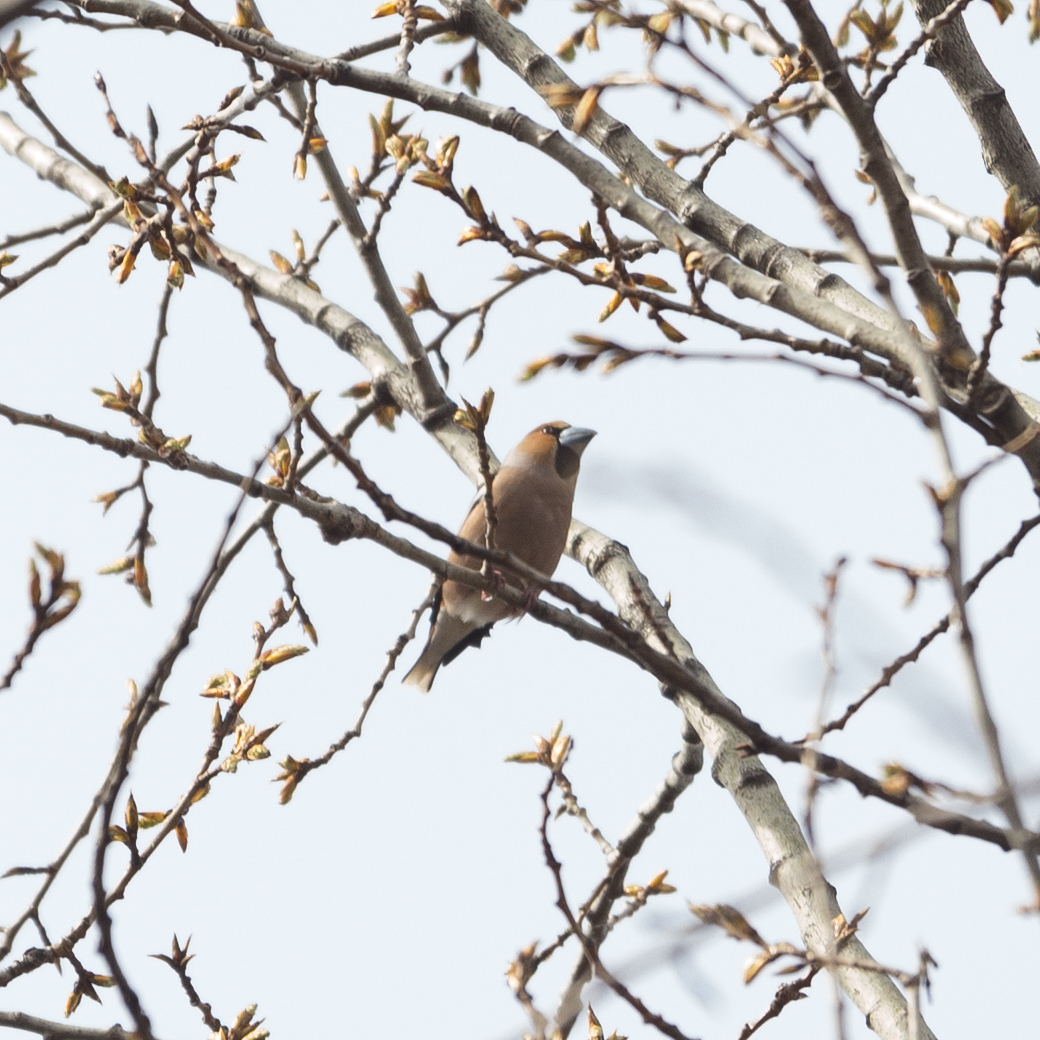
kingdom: Animalia
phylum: Chordata
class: Aves
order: Passeriformes
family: Fringillidae
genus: Coccothraustes
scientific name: Coccothraustes coccothraustes
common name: Hawfinch
